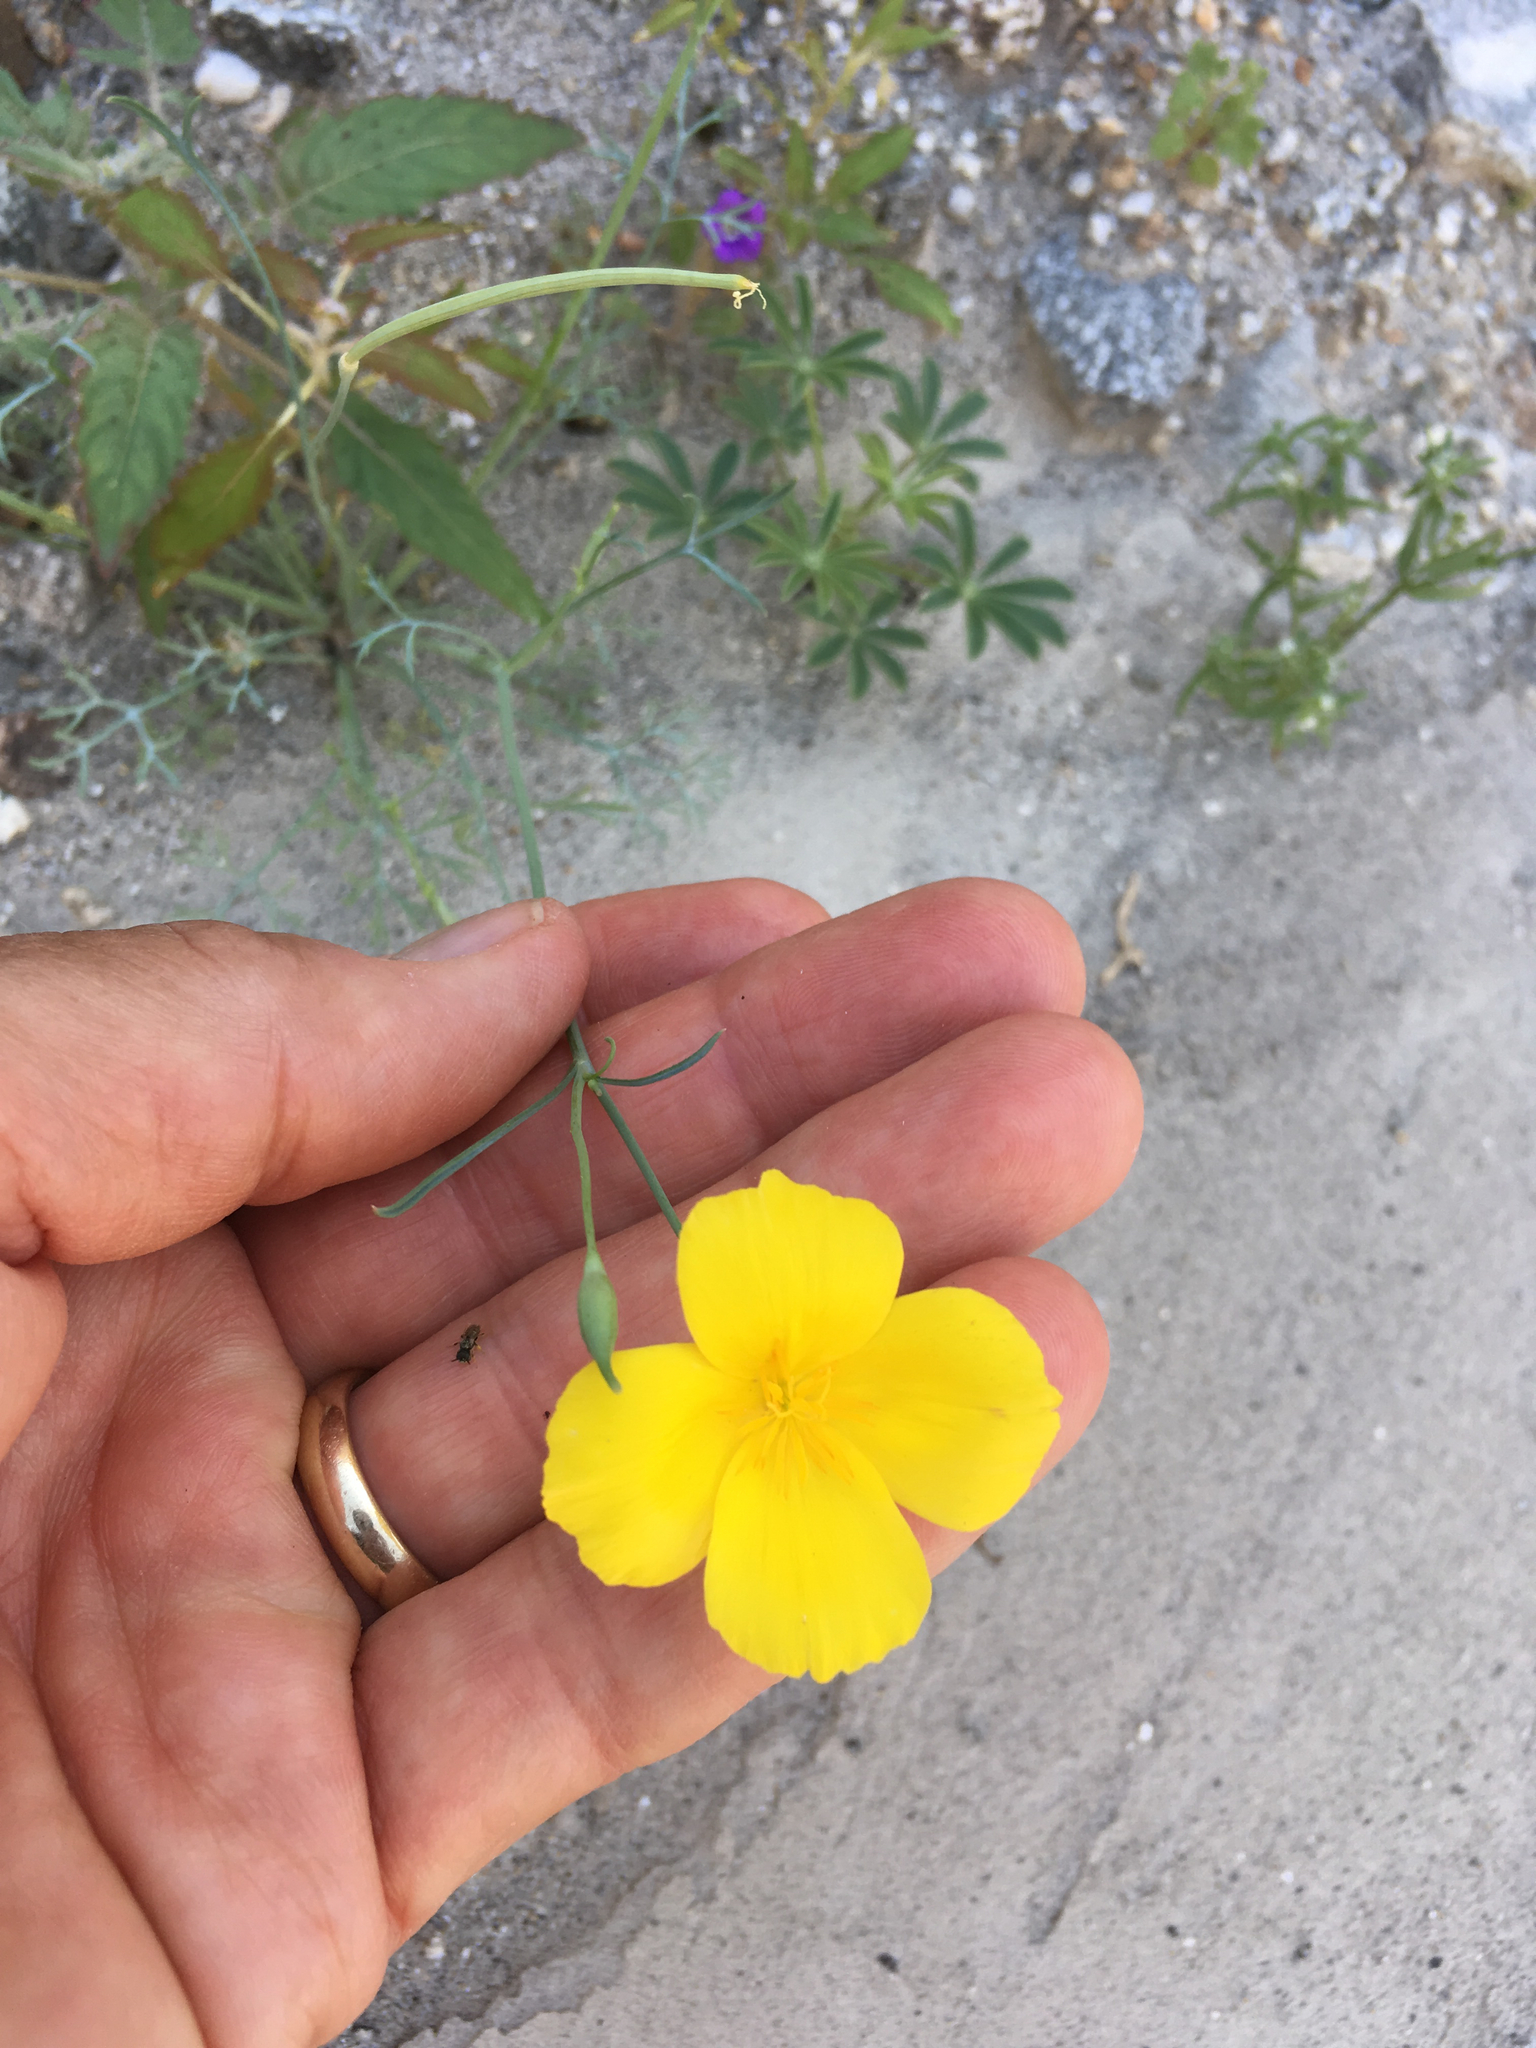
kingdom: Plantae
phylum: Tracheophyta
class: Magnoliopsida
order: Ranunculales
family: Papaveraceae
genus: Eschscholzia
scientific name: Eschscholzia parishii
